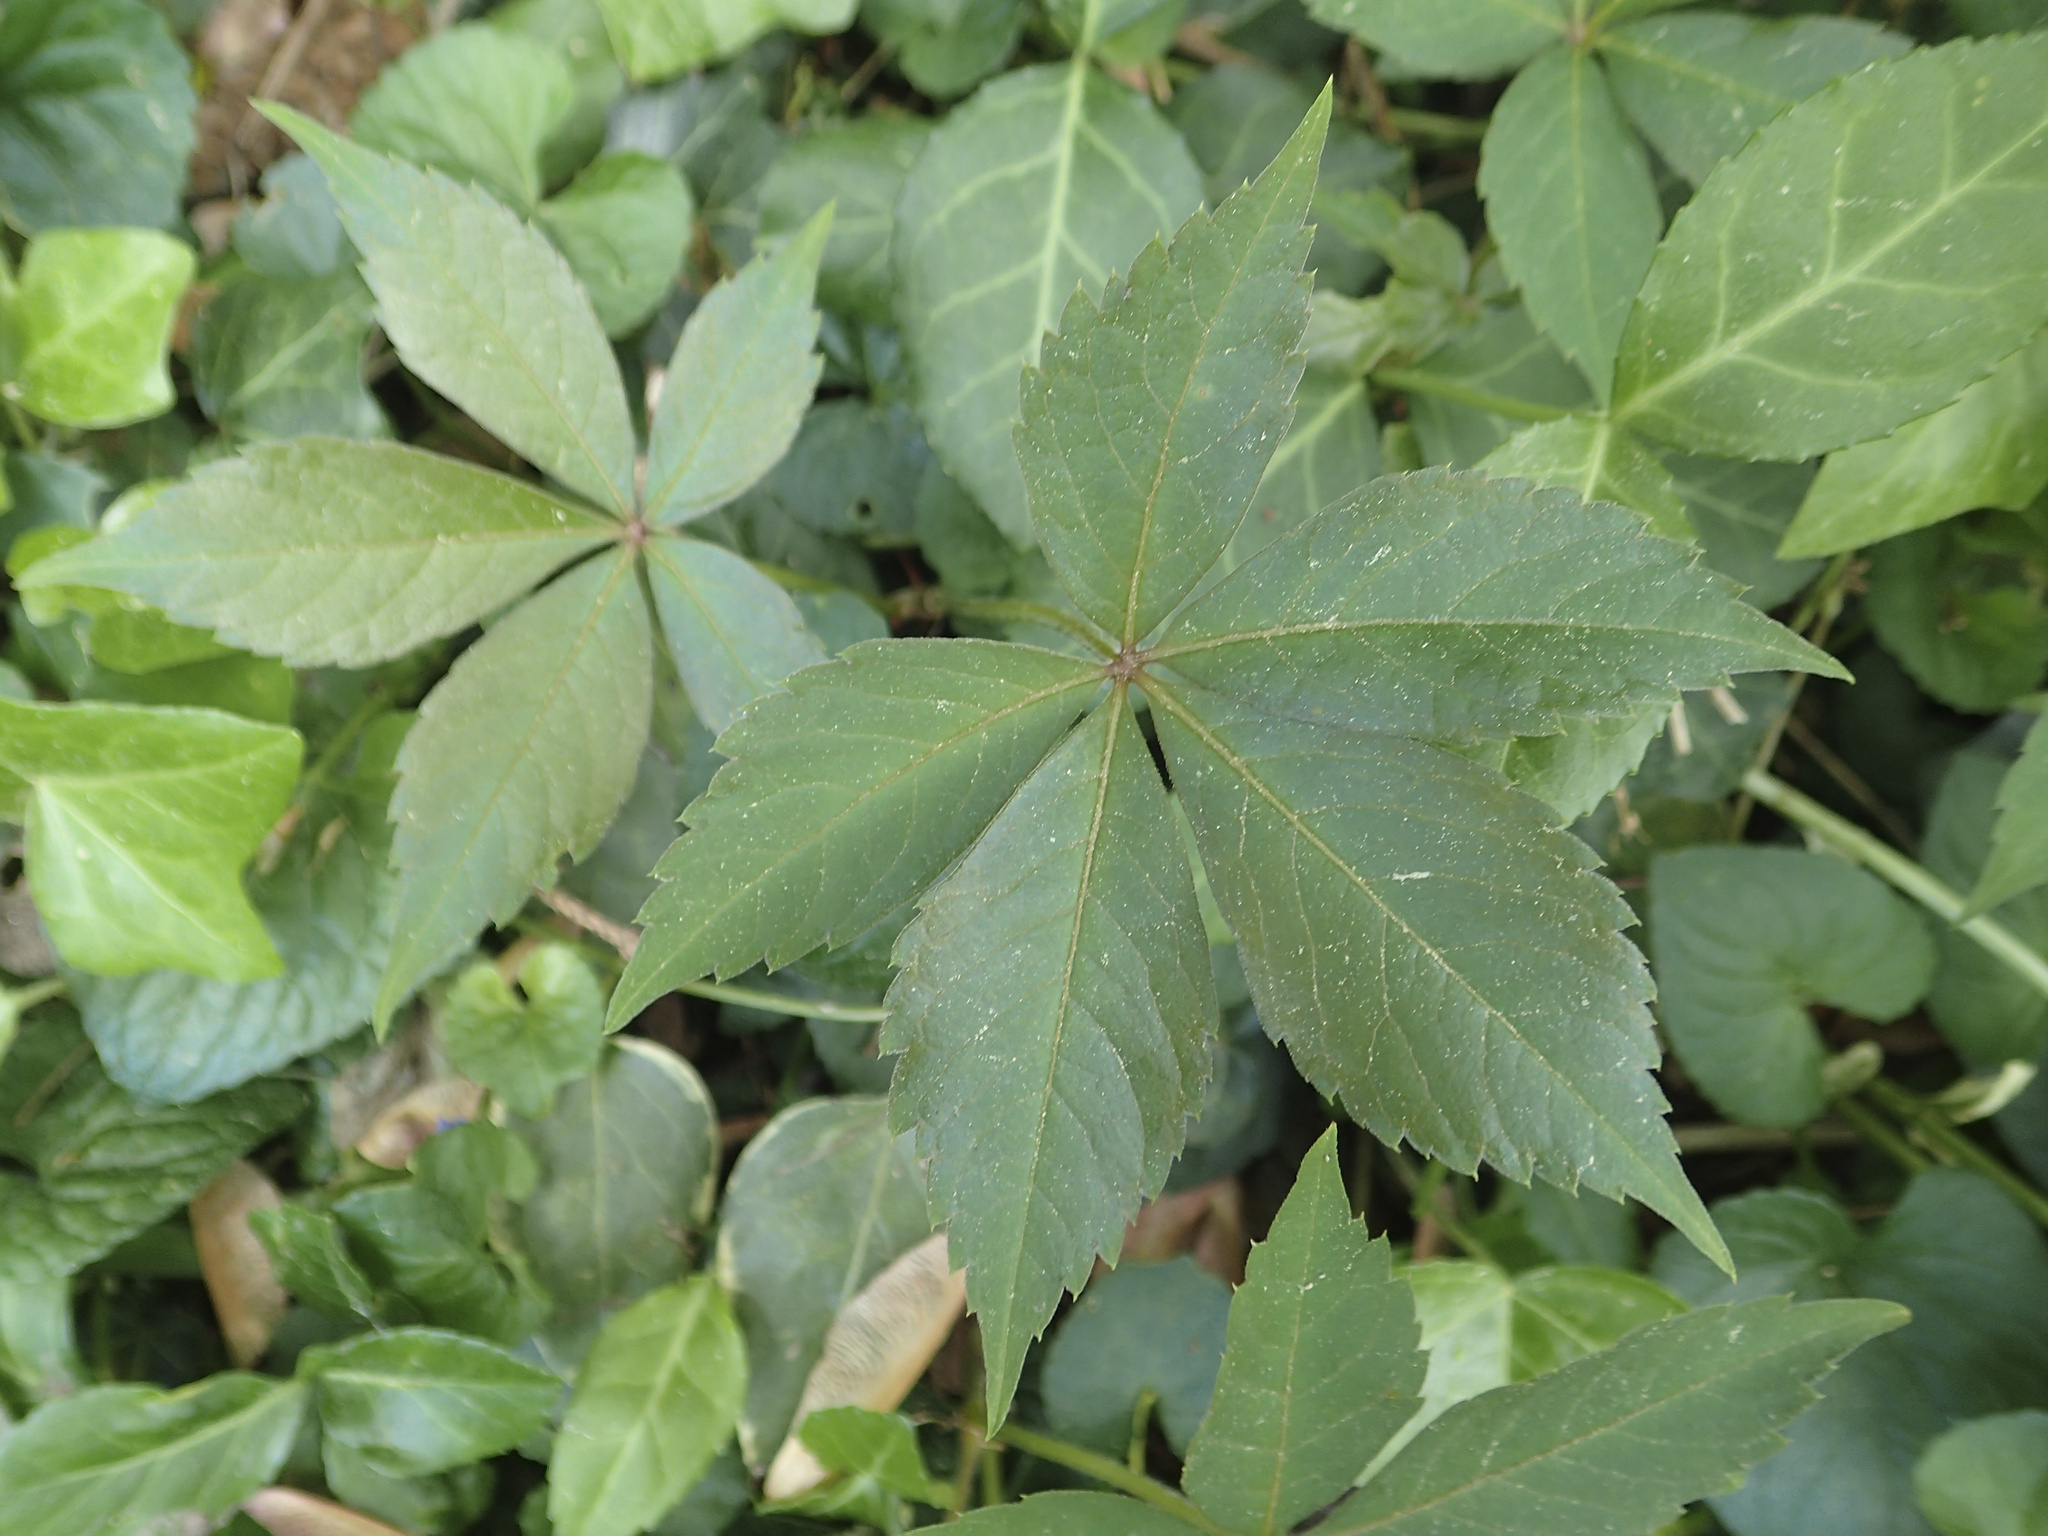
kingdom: Plantae
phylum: Tracheophyta
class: Magnoliopsida
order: Vitales
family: Vitaceae
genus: Parthenocissus
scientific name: Parthenocissus quinquefolia
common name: Virginia-creeper
